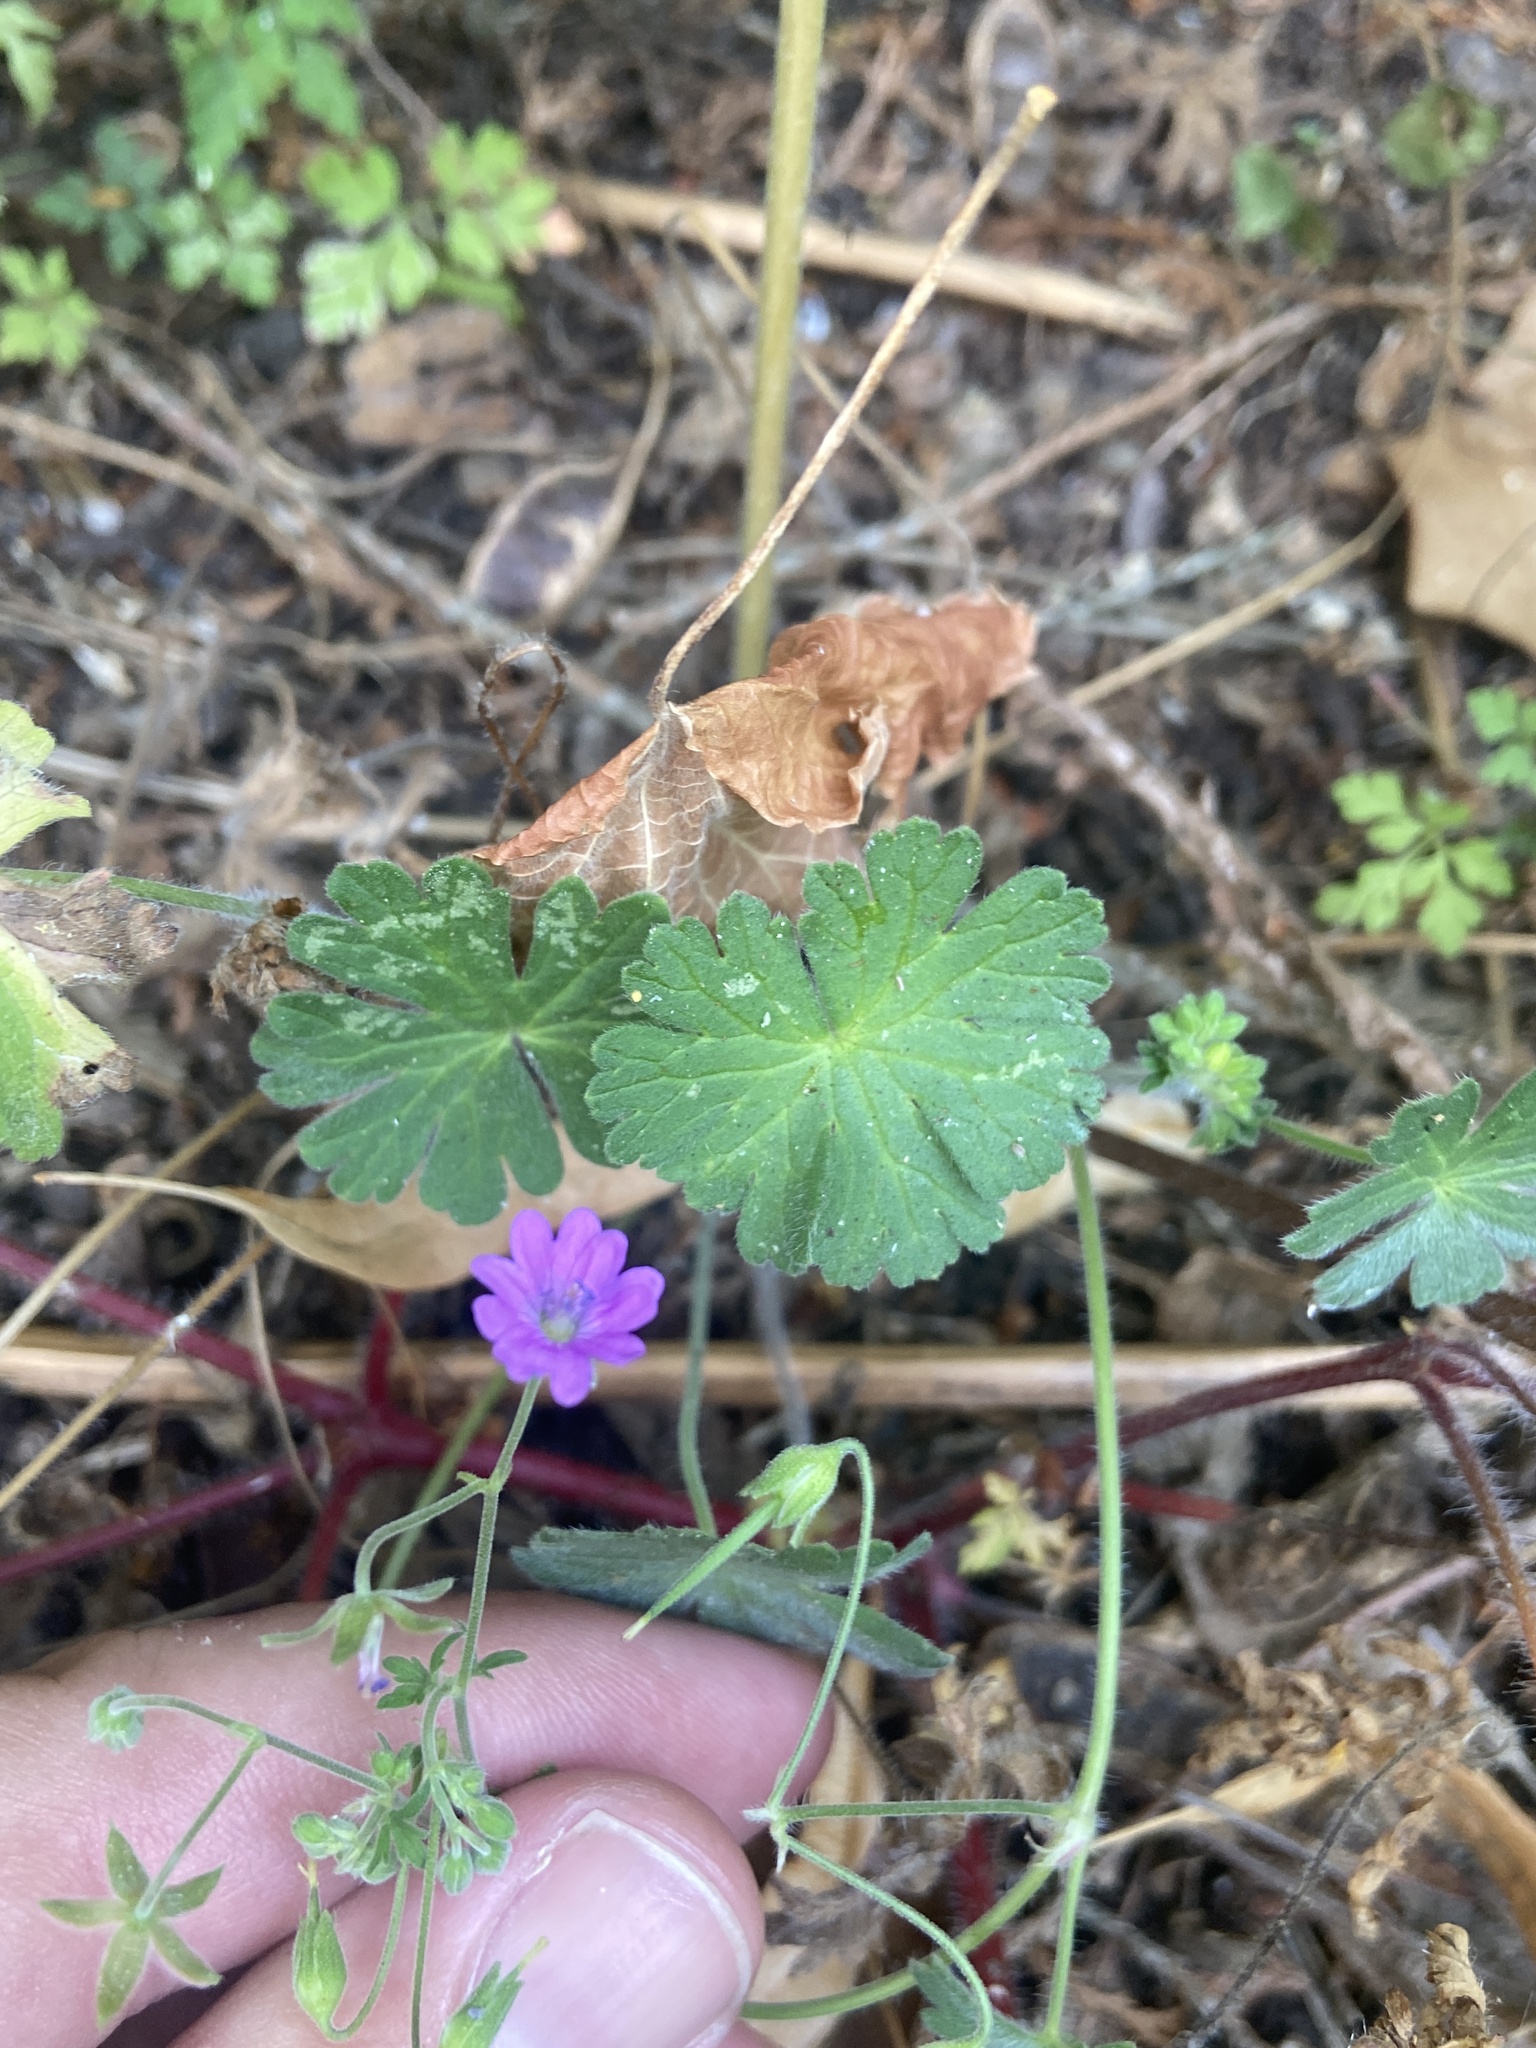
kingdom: Plantae
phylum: Tracheophyta
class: Magnoliopsida
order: Geraniales
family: Geraniaceae
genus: Geranium
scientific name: Geranium pyrenaicum
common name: Hedgerow crane's-bill
